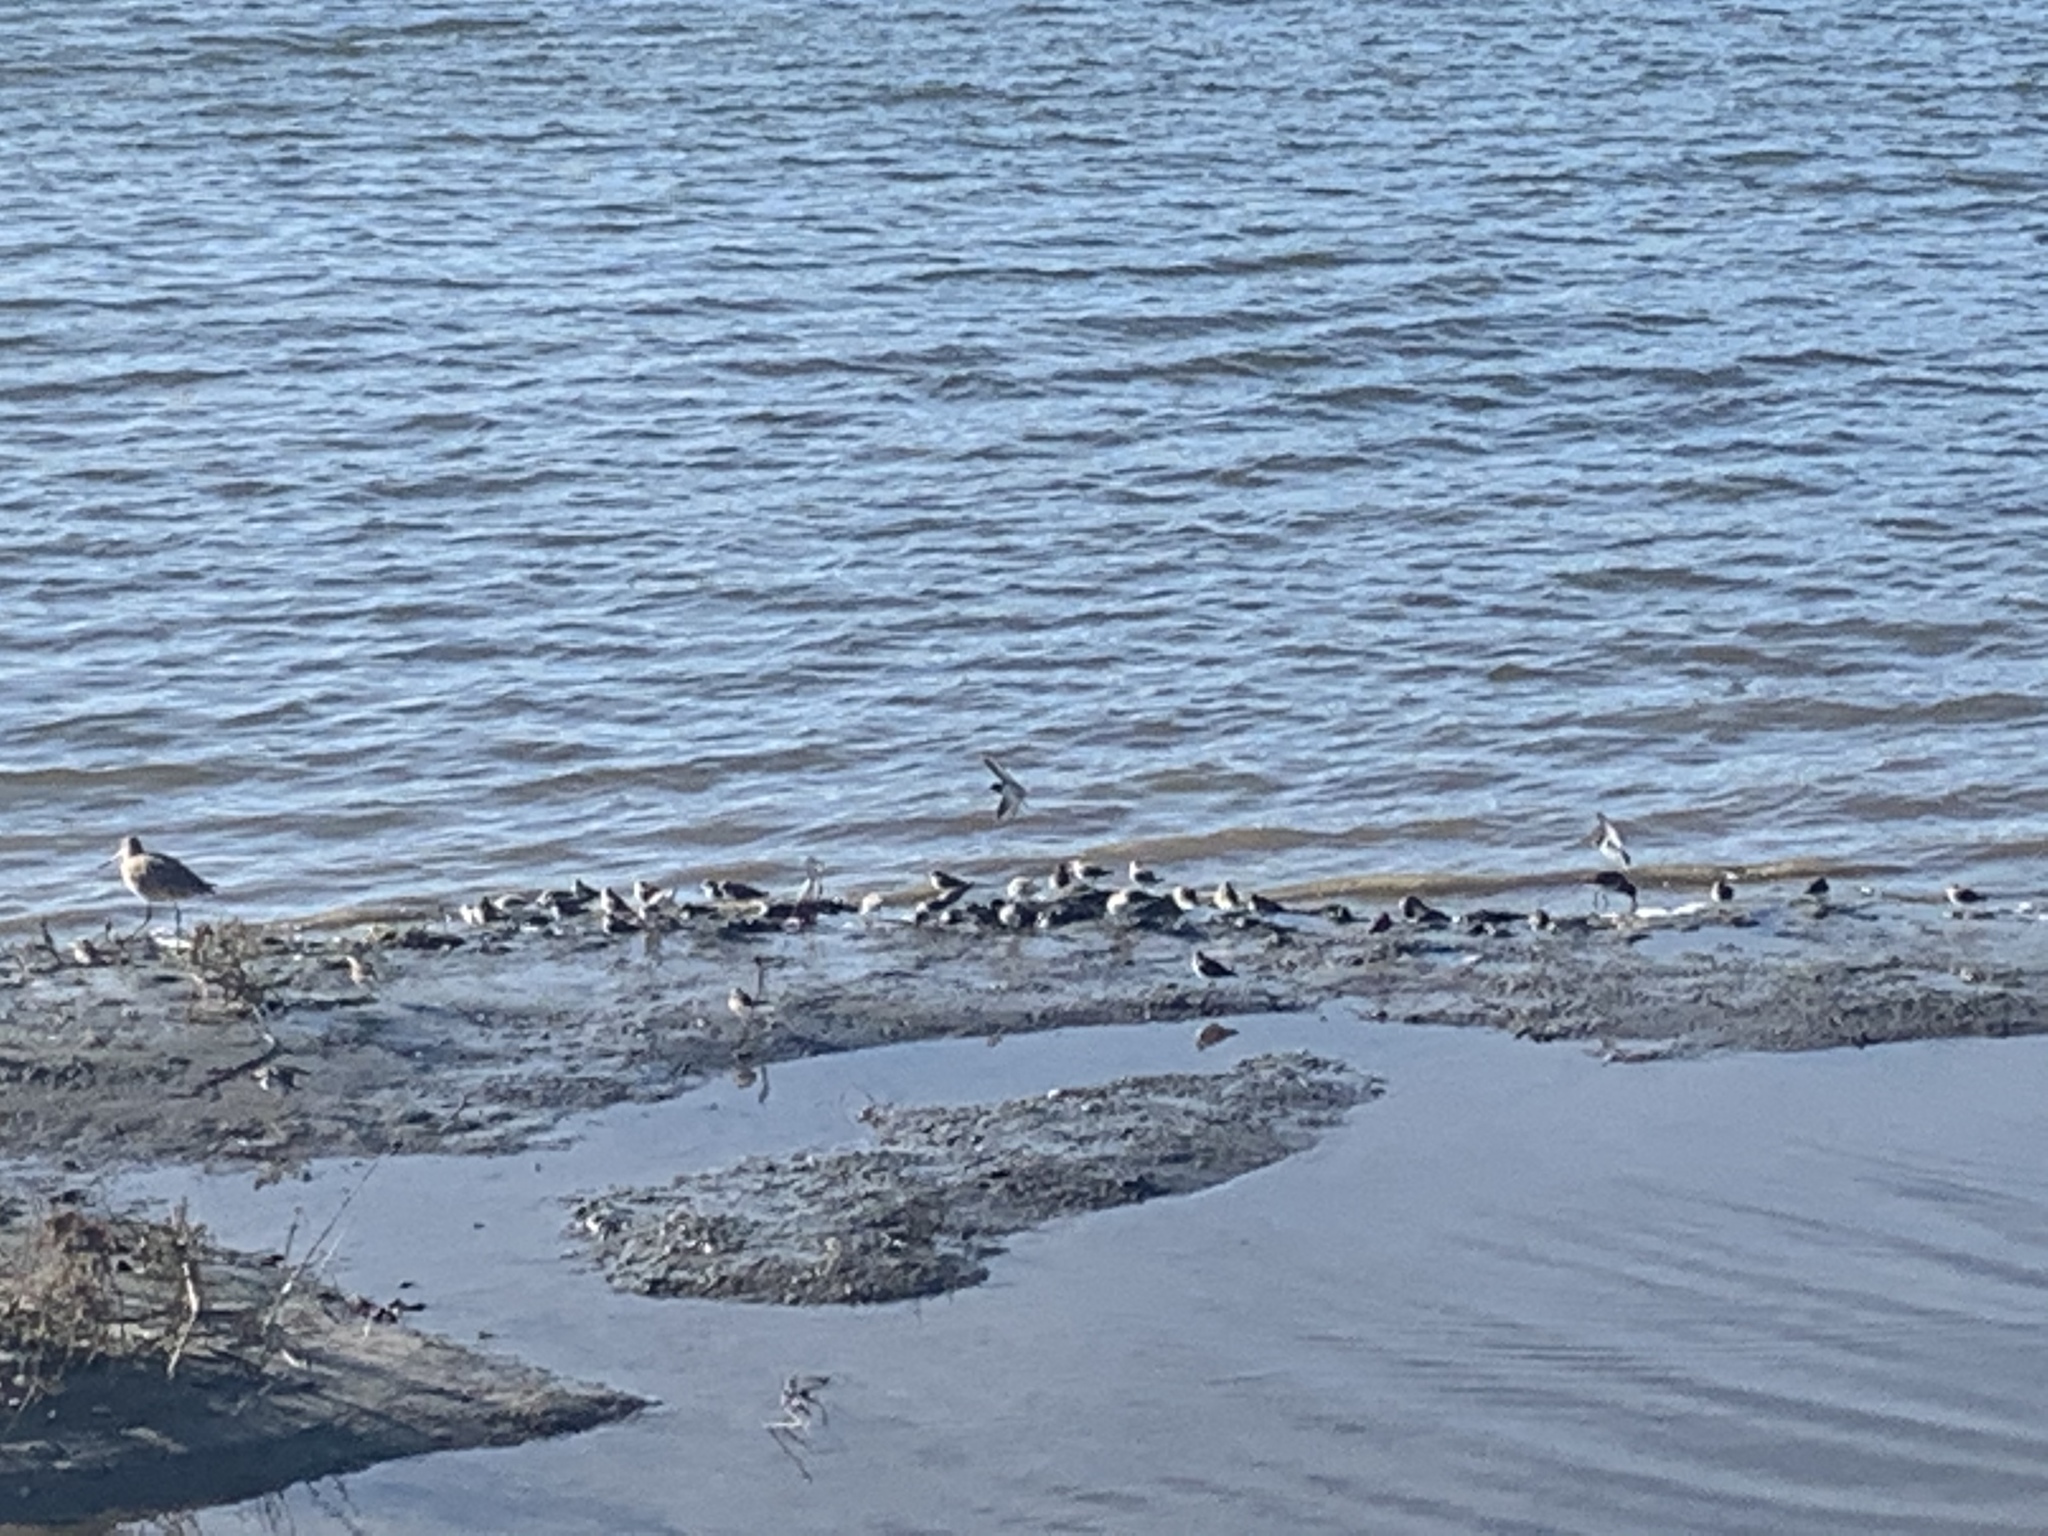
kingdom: Animalia
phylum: Chordata
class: Aves
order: Charadriiformes
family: Scolopacidae
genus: Limosa
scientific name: Limosa fedoa
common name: Marbled godwit
